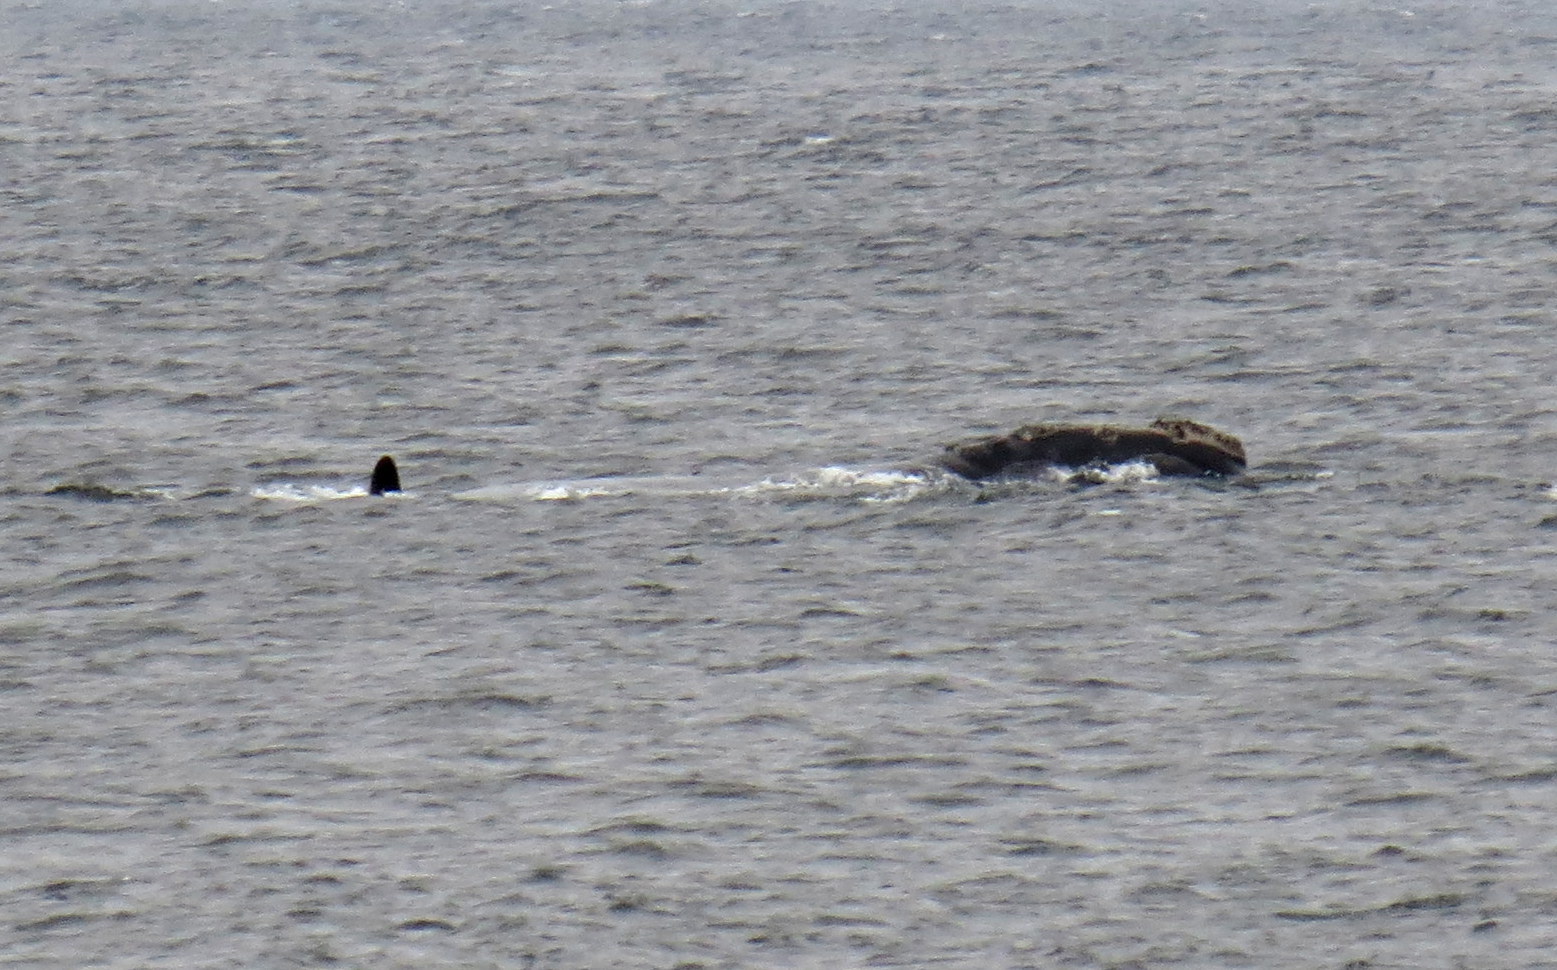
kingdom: Animalia
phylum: Chordata
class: Mammalia
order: Cetacea
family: Balaenidae
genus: Eubalaena
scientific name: Eubalaena glacialis
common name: North atlantic right whale
